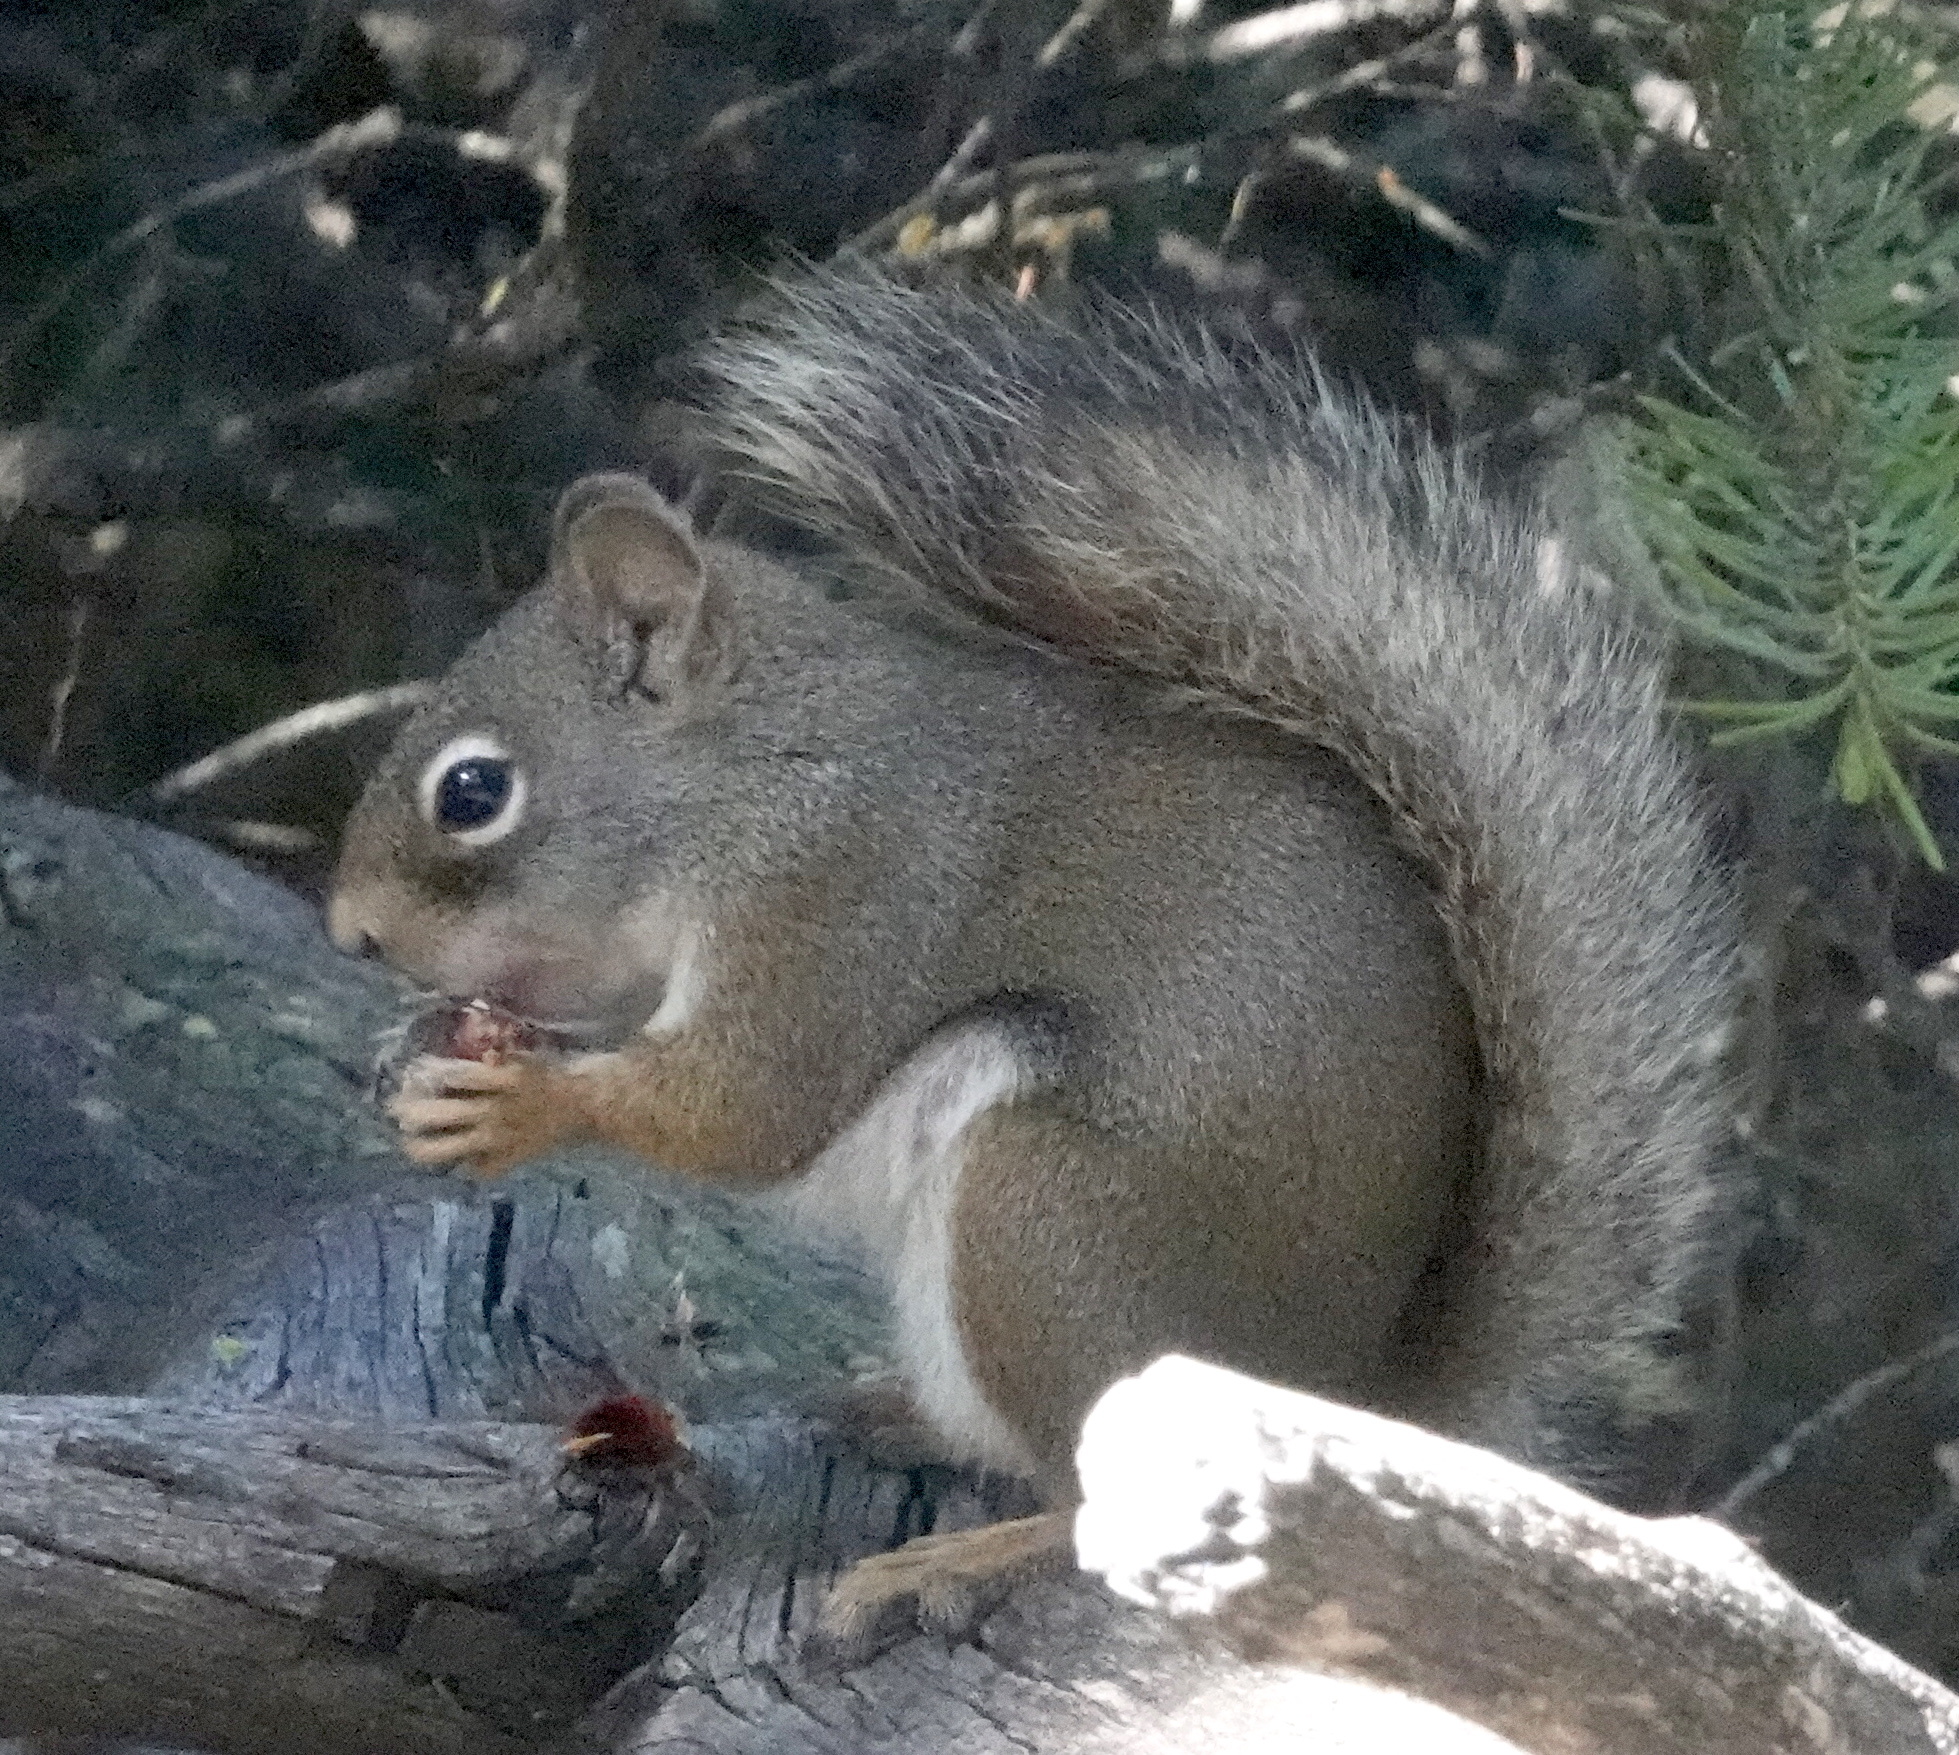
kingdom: Animalia
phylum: Chordata
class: Mammalia
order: Rodentia
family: Sciuridae
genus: Tamiasciurus
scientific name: Tamiasciurus hudsonicus
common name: Red squirrel
